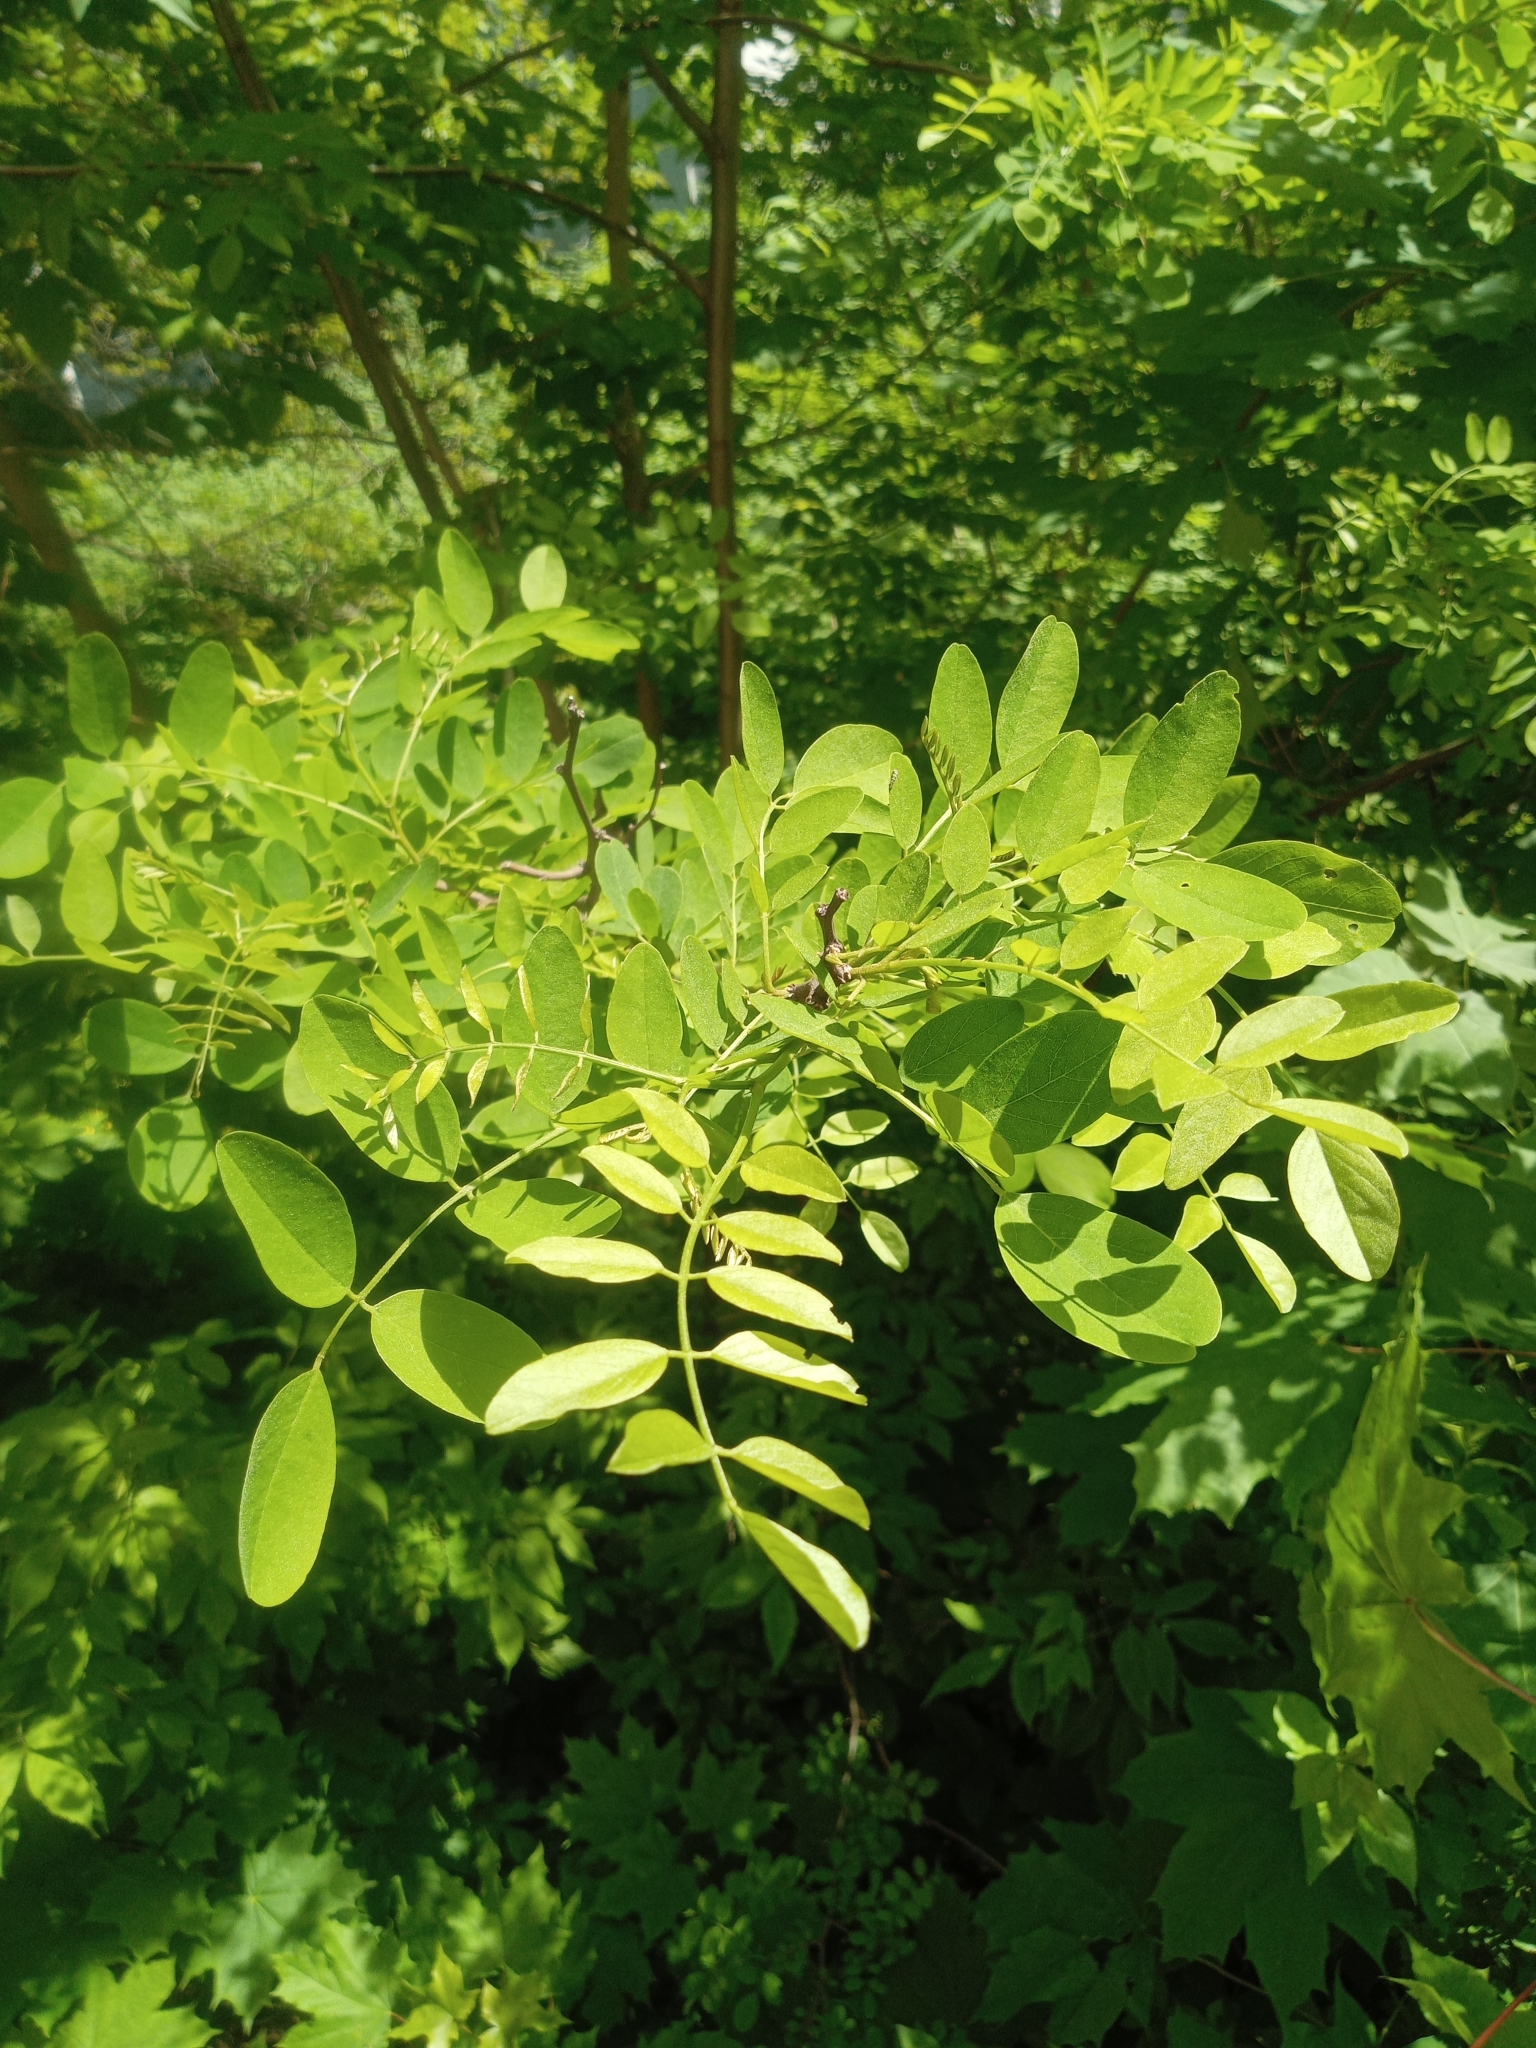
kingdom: Plantae
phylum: Tracheophyta
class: Magnoliopsida
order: Fabales
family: Fabaceae
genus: Robinia
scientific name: Robinia pseudoacacia
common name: Black locust
